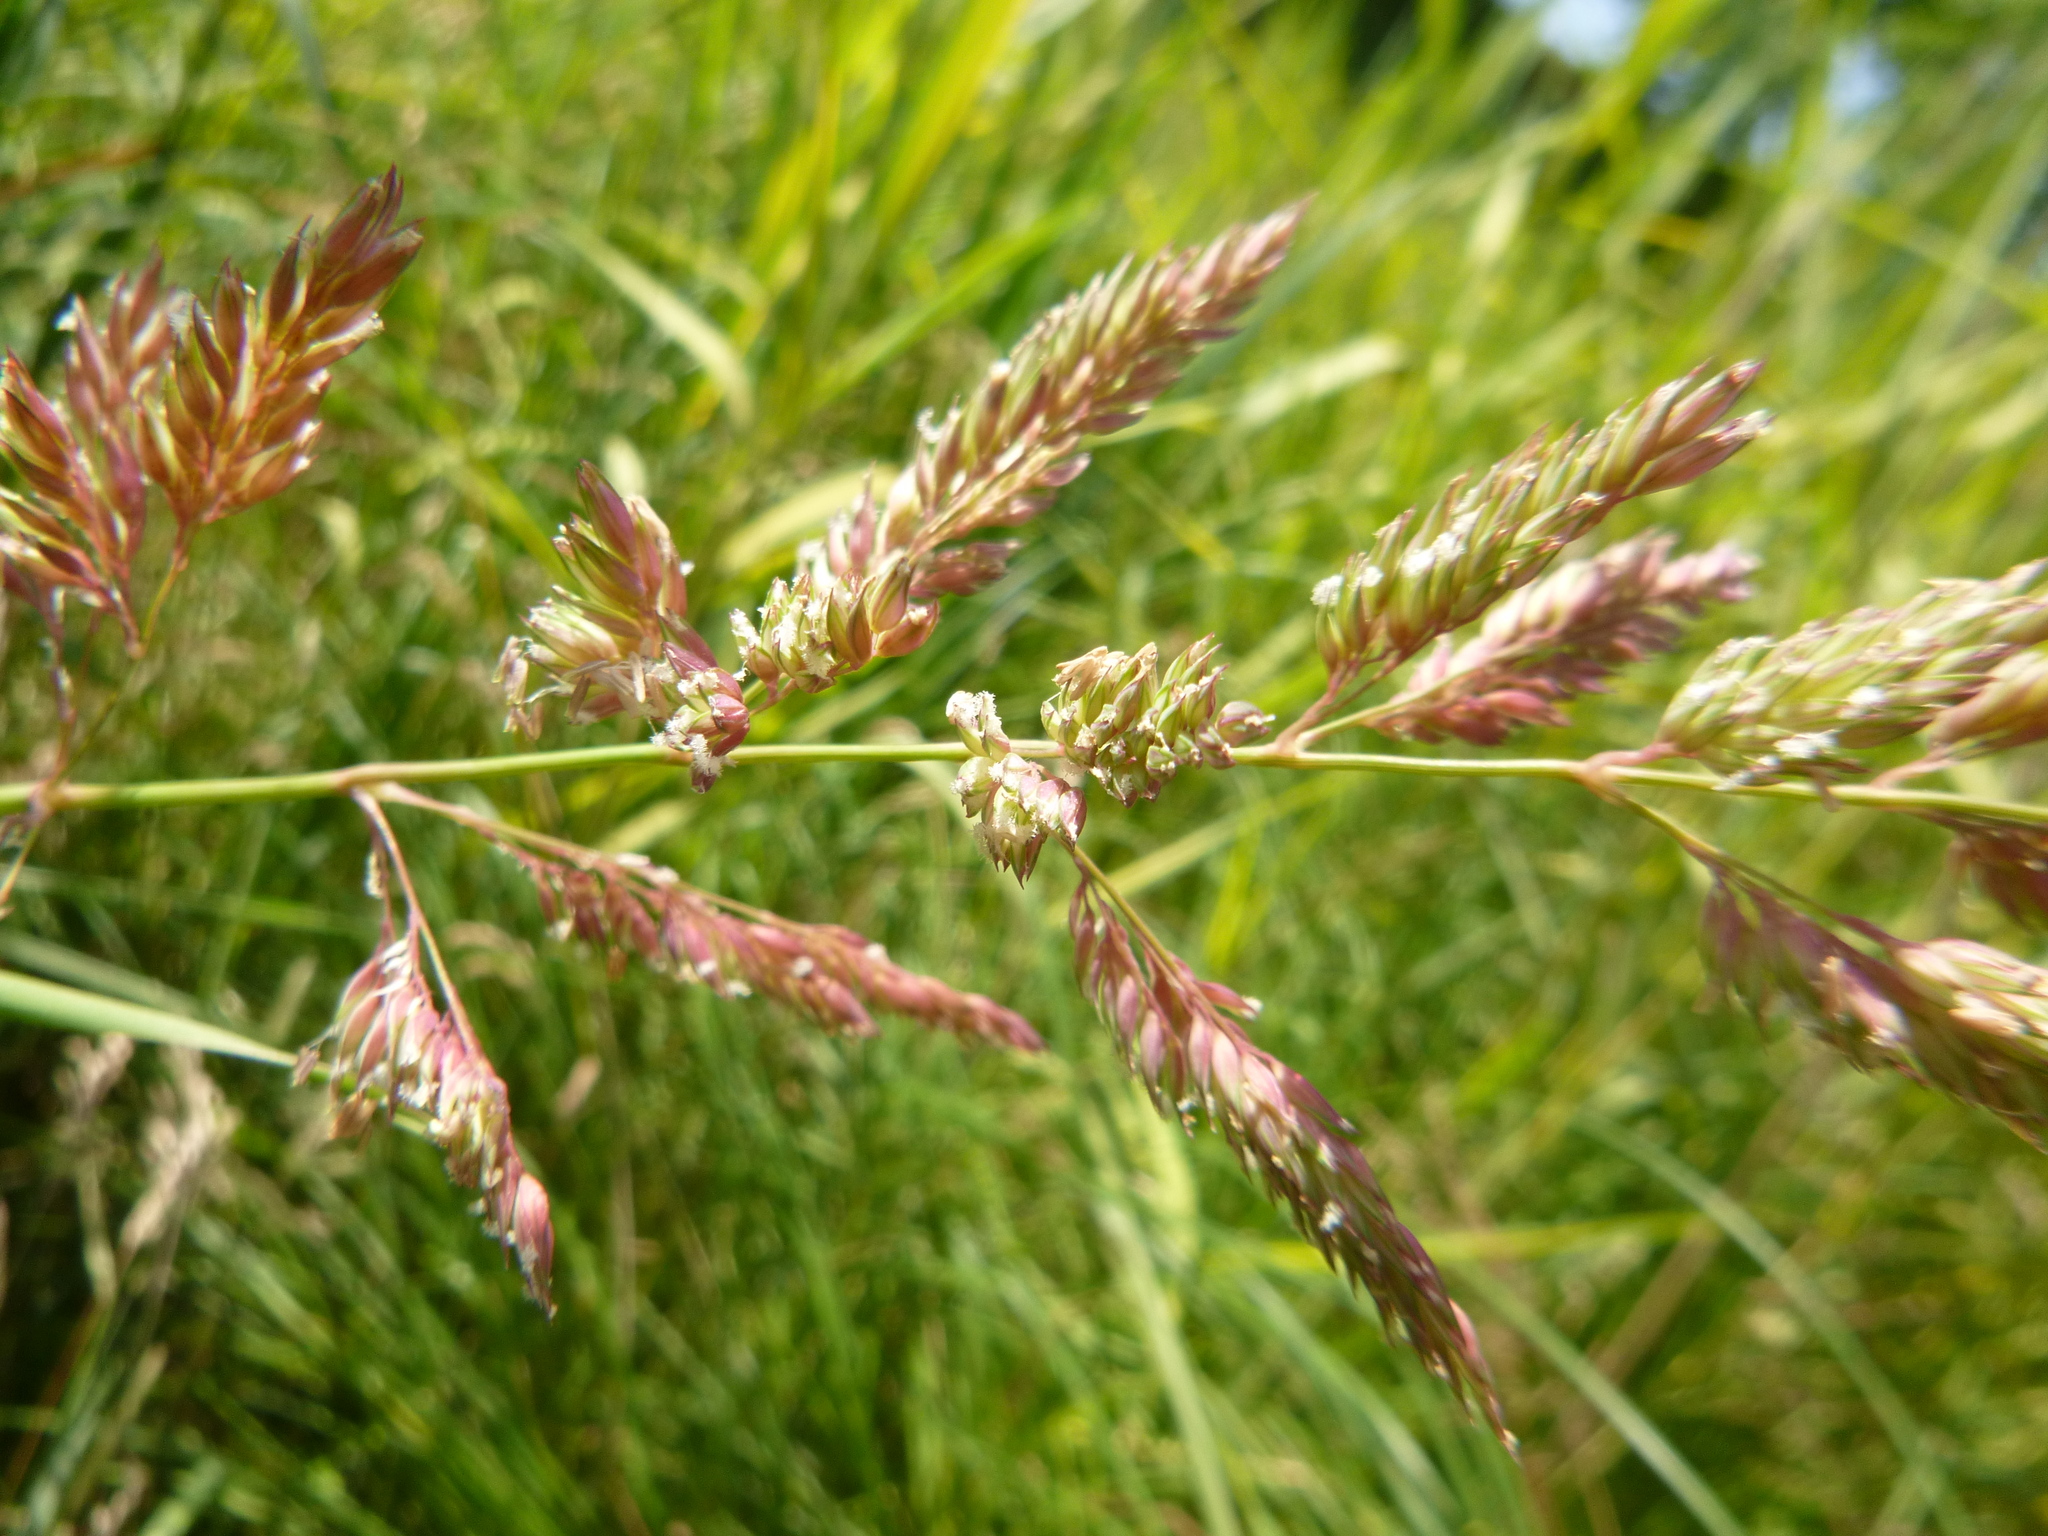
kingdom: Plantae
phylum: Tracheophyta
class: Liliopsida
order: Poales
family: Poaceae
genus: Phalaris
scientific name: Phalaris arundinacea
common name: Reed canary-grass
